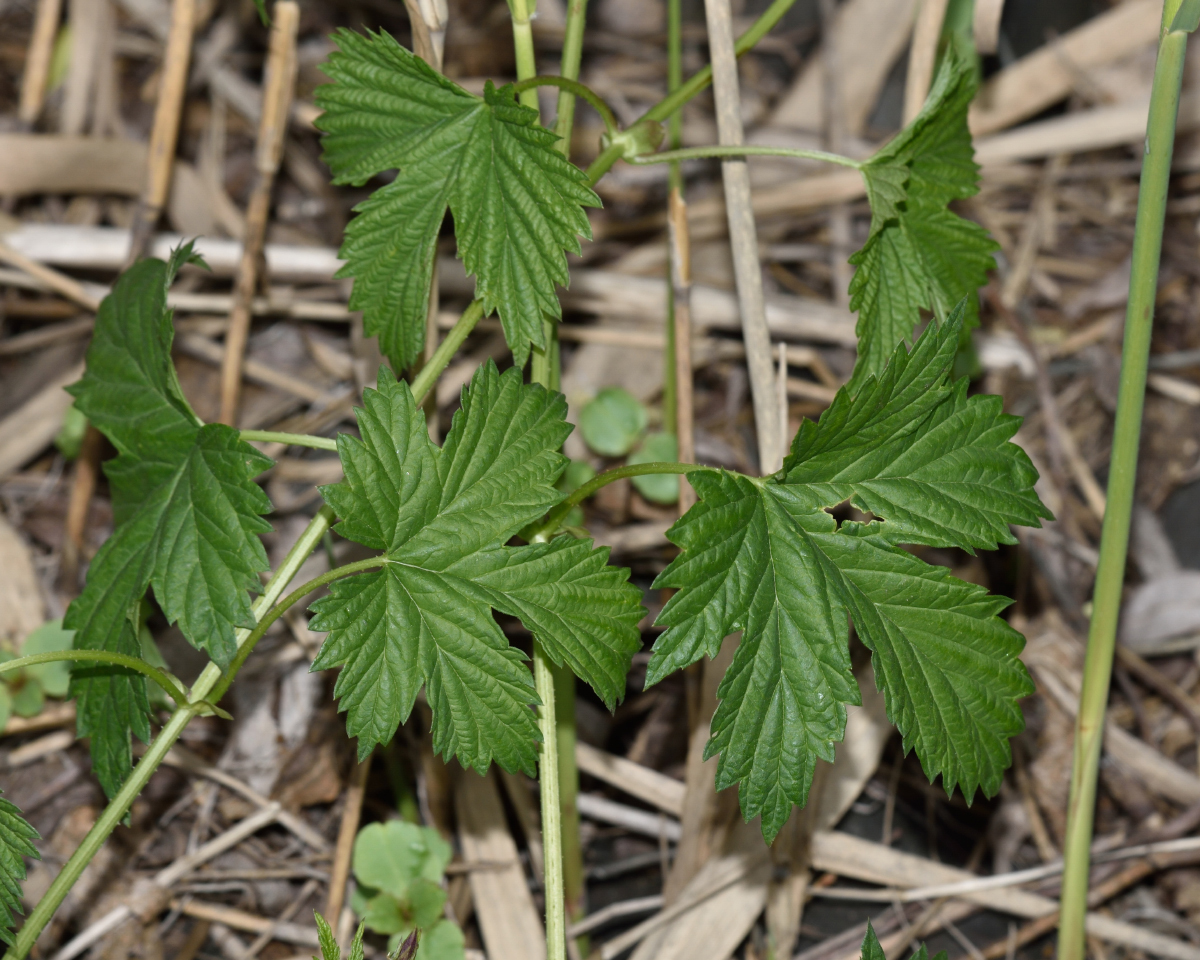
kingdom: Plantae
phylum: Tracheophyta
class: Magnoliopsida
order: Rosales
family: Cannabaceae
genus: Humulus
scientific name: Humulus lupulus
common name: Hop
